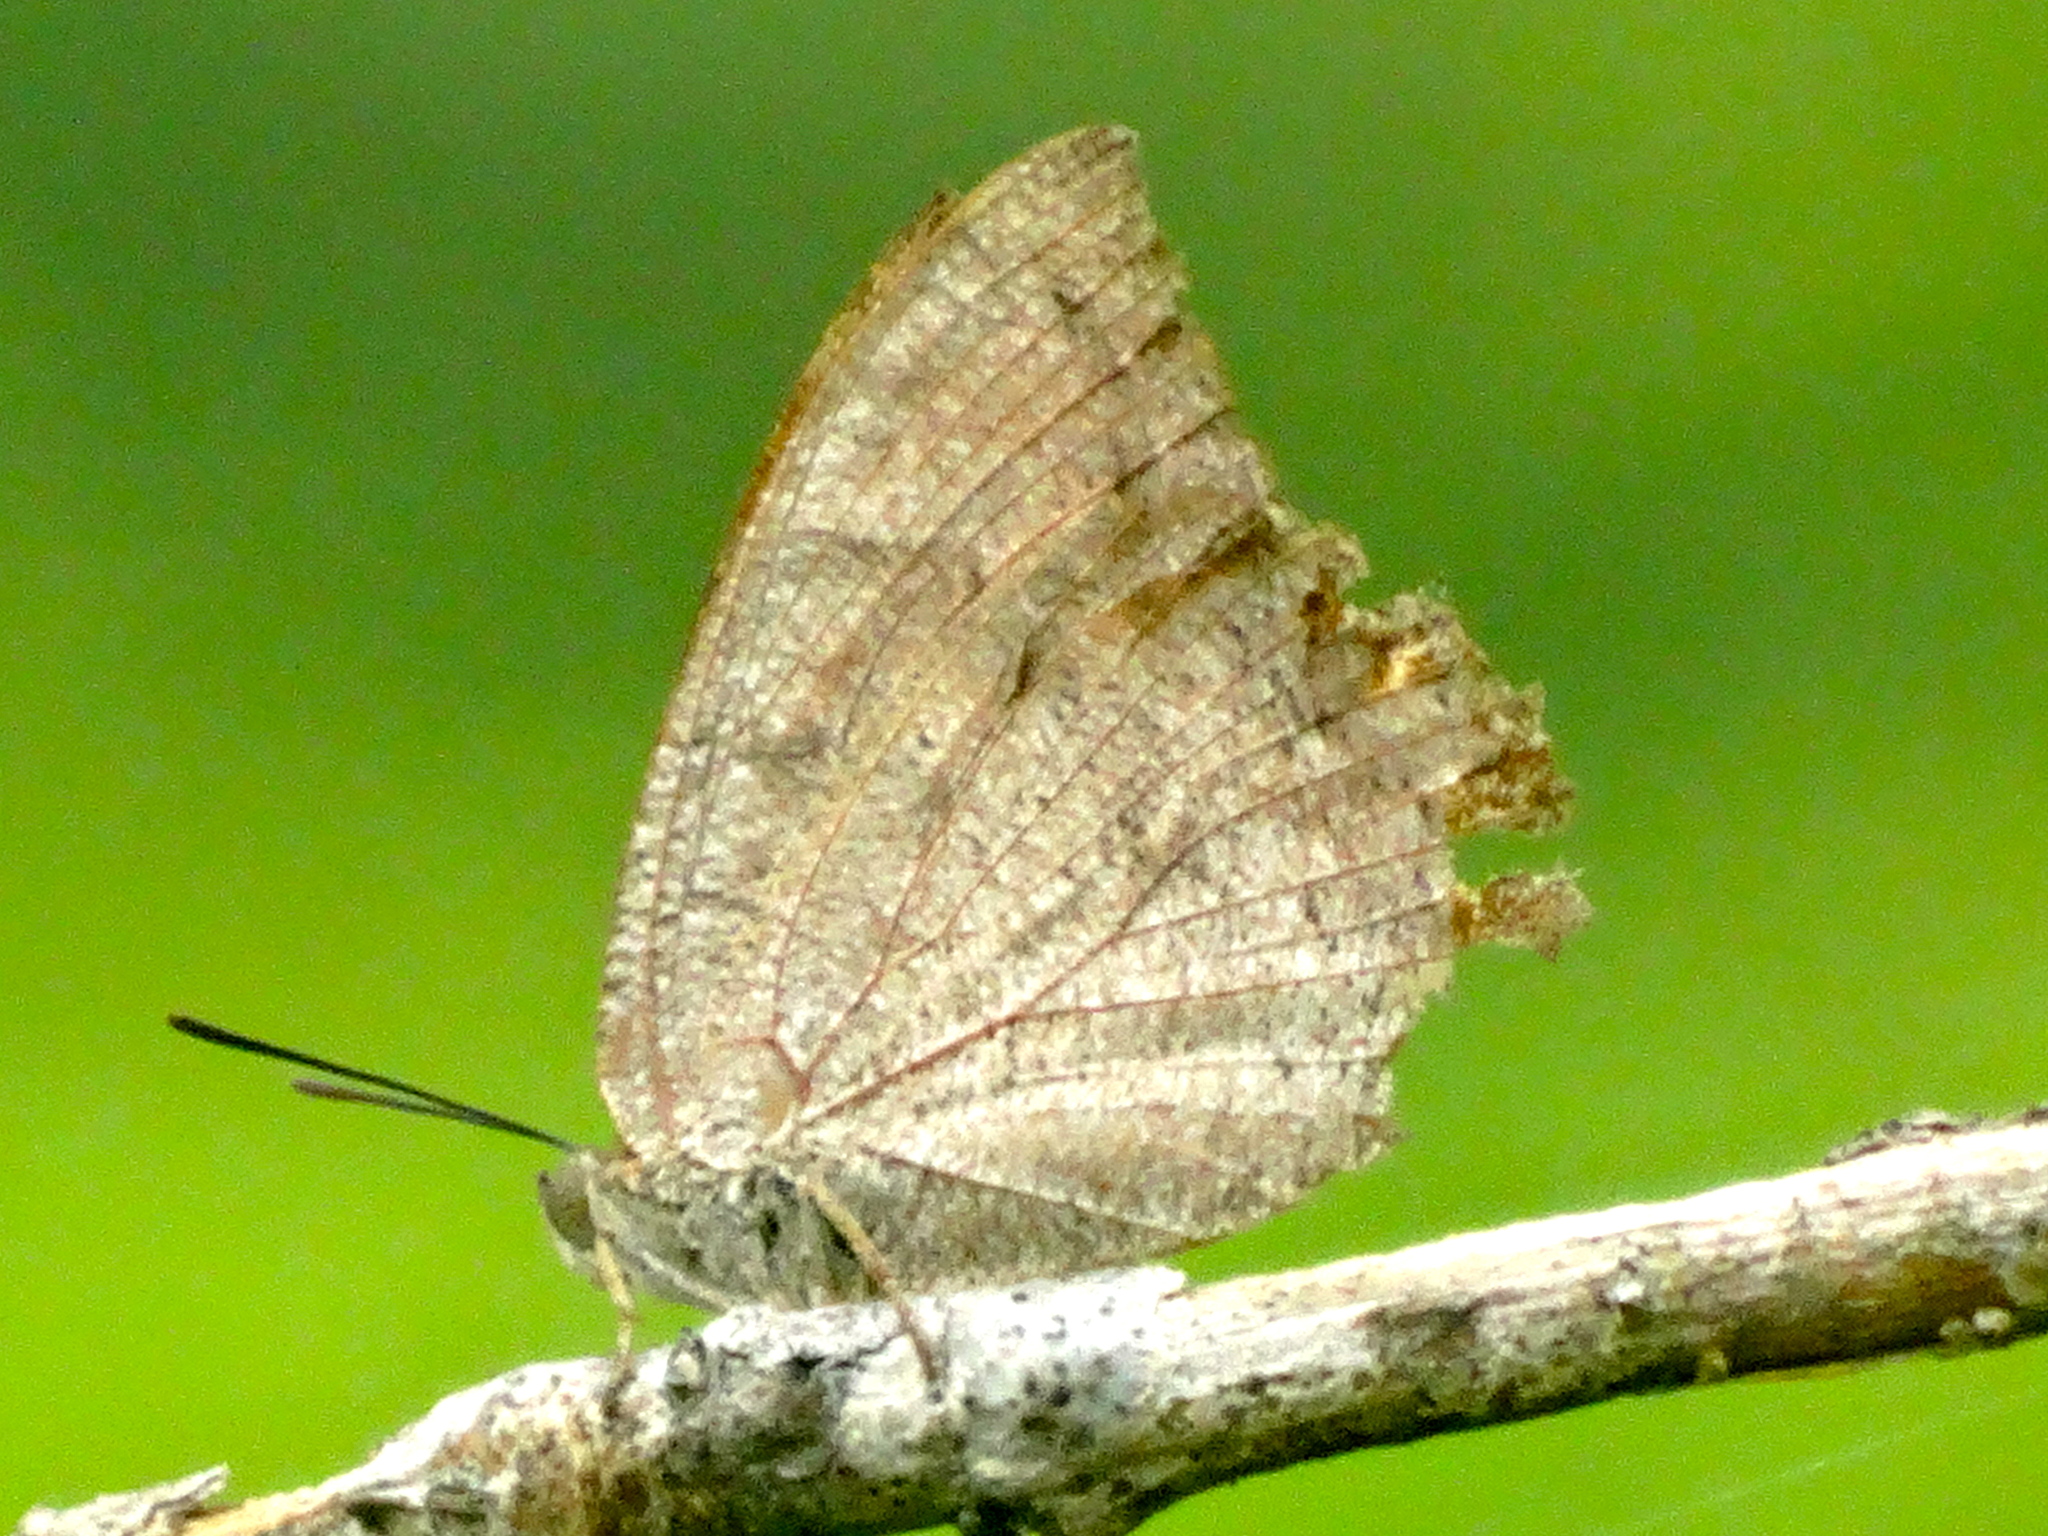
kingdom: Animalia
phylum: Arthropoda
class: Insecta
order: Lepidoptera
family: Nymphalidae
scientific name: Nymphalidae
